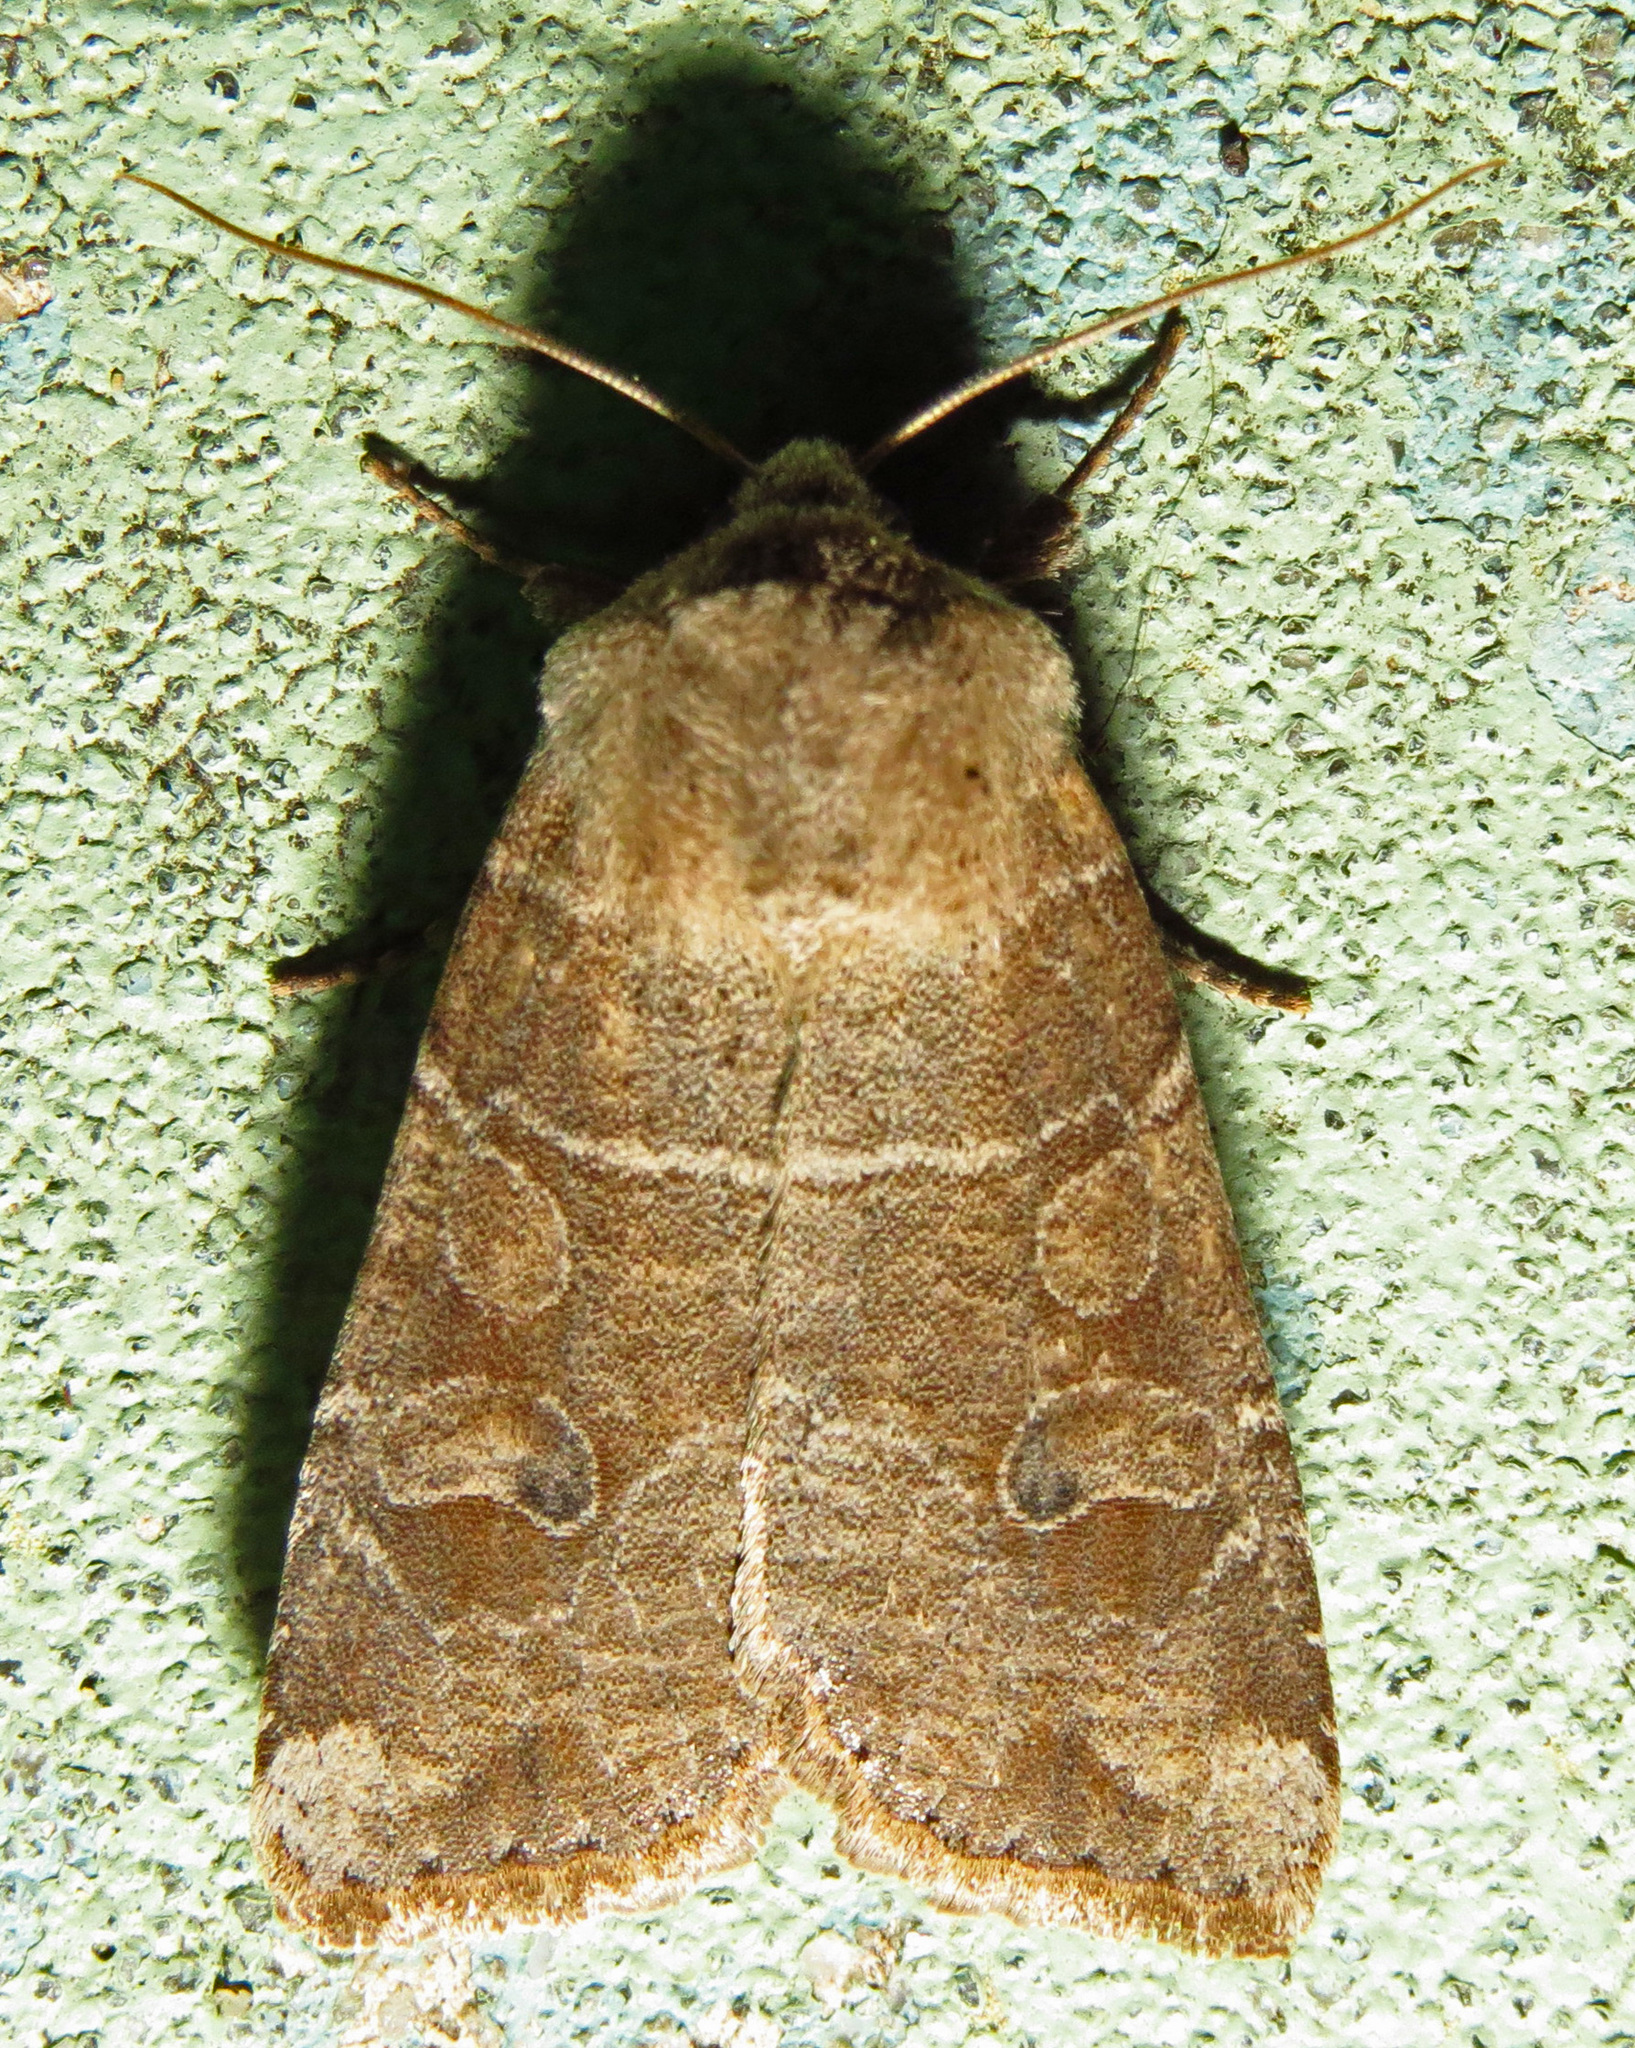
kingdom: Animalia
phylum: Arthropoda
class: Insecta
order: Lepidoptera
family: Noctuidae
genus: Crocigrapha
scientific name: Crocigrapha normani
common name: Norman's quaker
